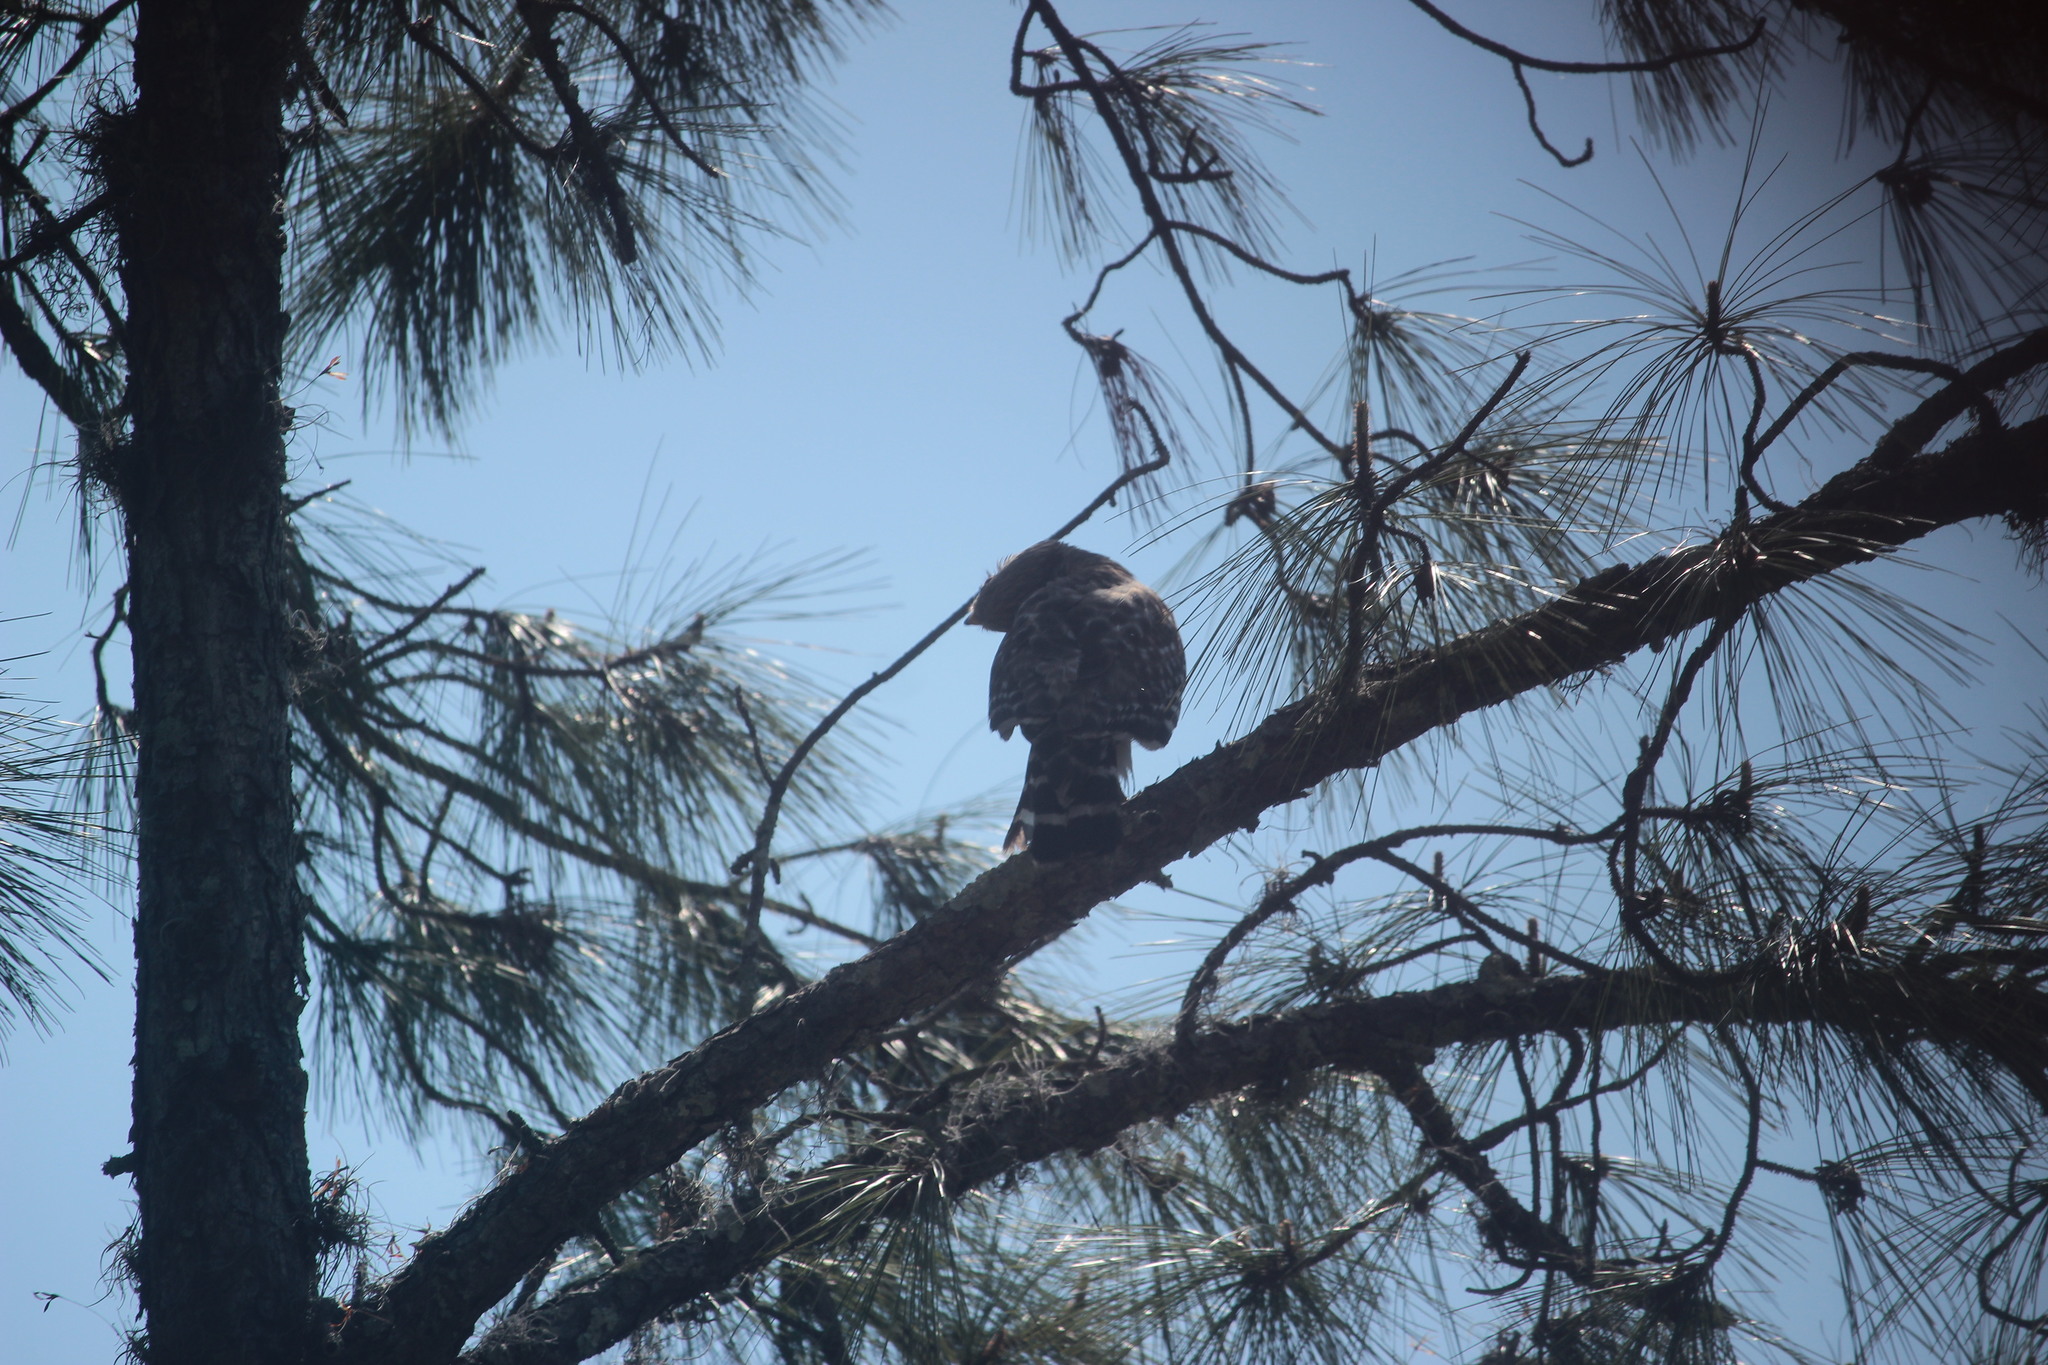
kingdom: Animalia
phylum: Chordata
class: Aves
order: Accipitriformes
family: Accipitridae
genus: Buteo
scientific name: Buteo lineatus
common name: Red-shouldered hawk
